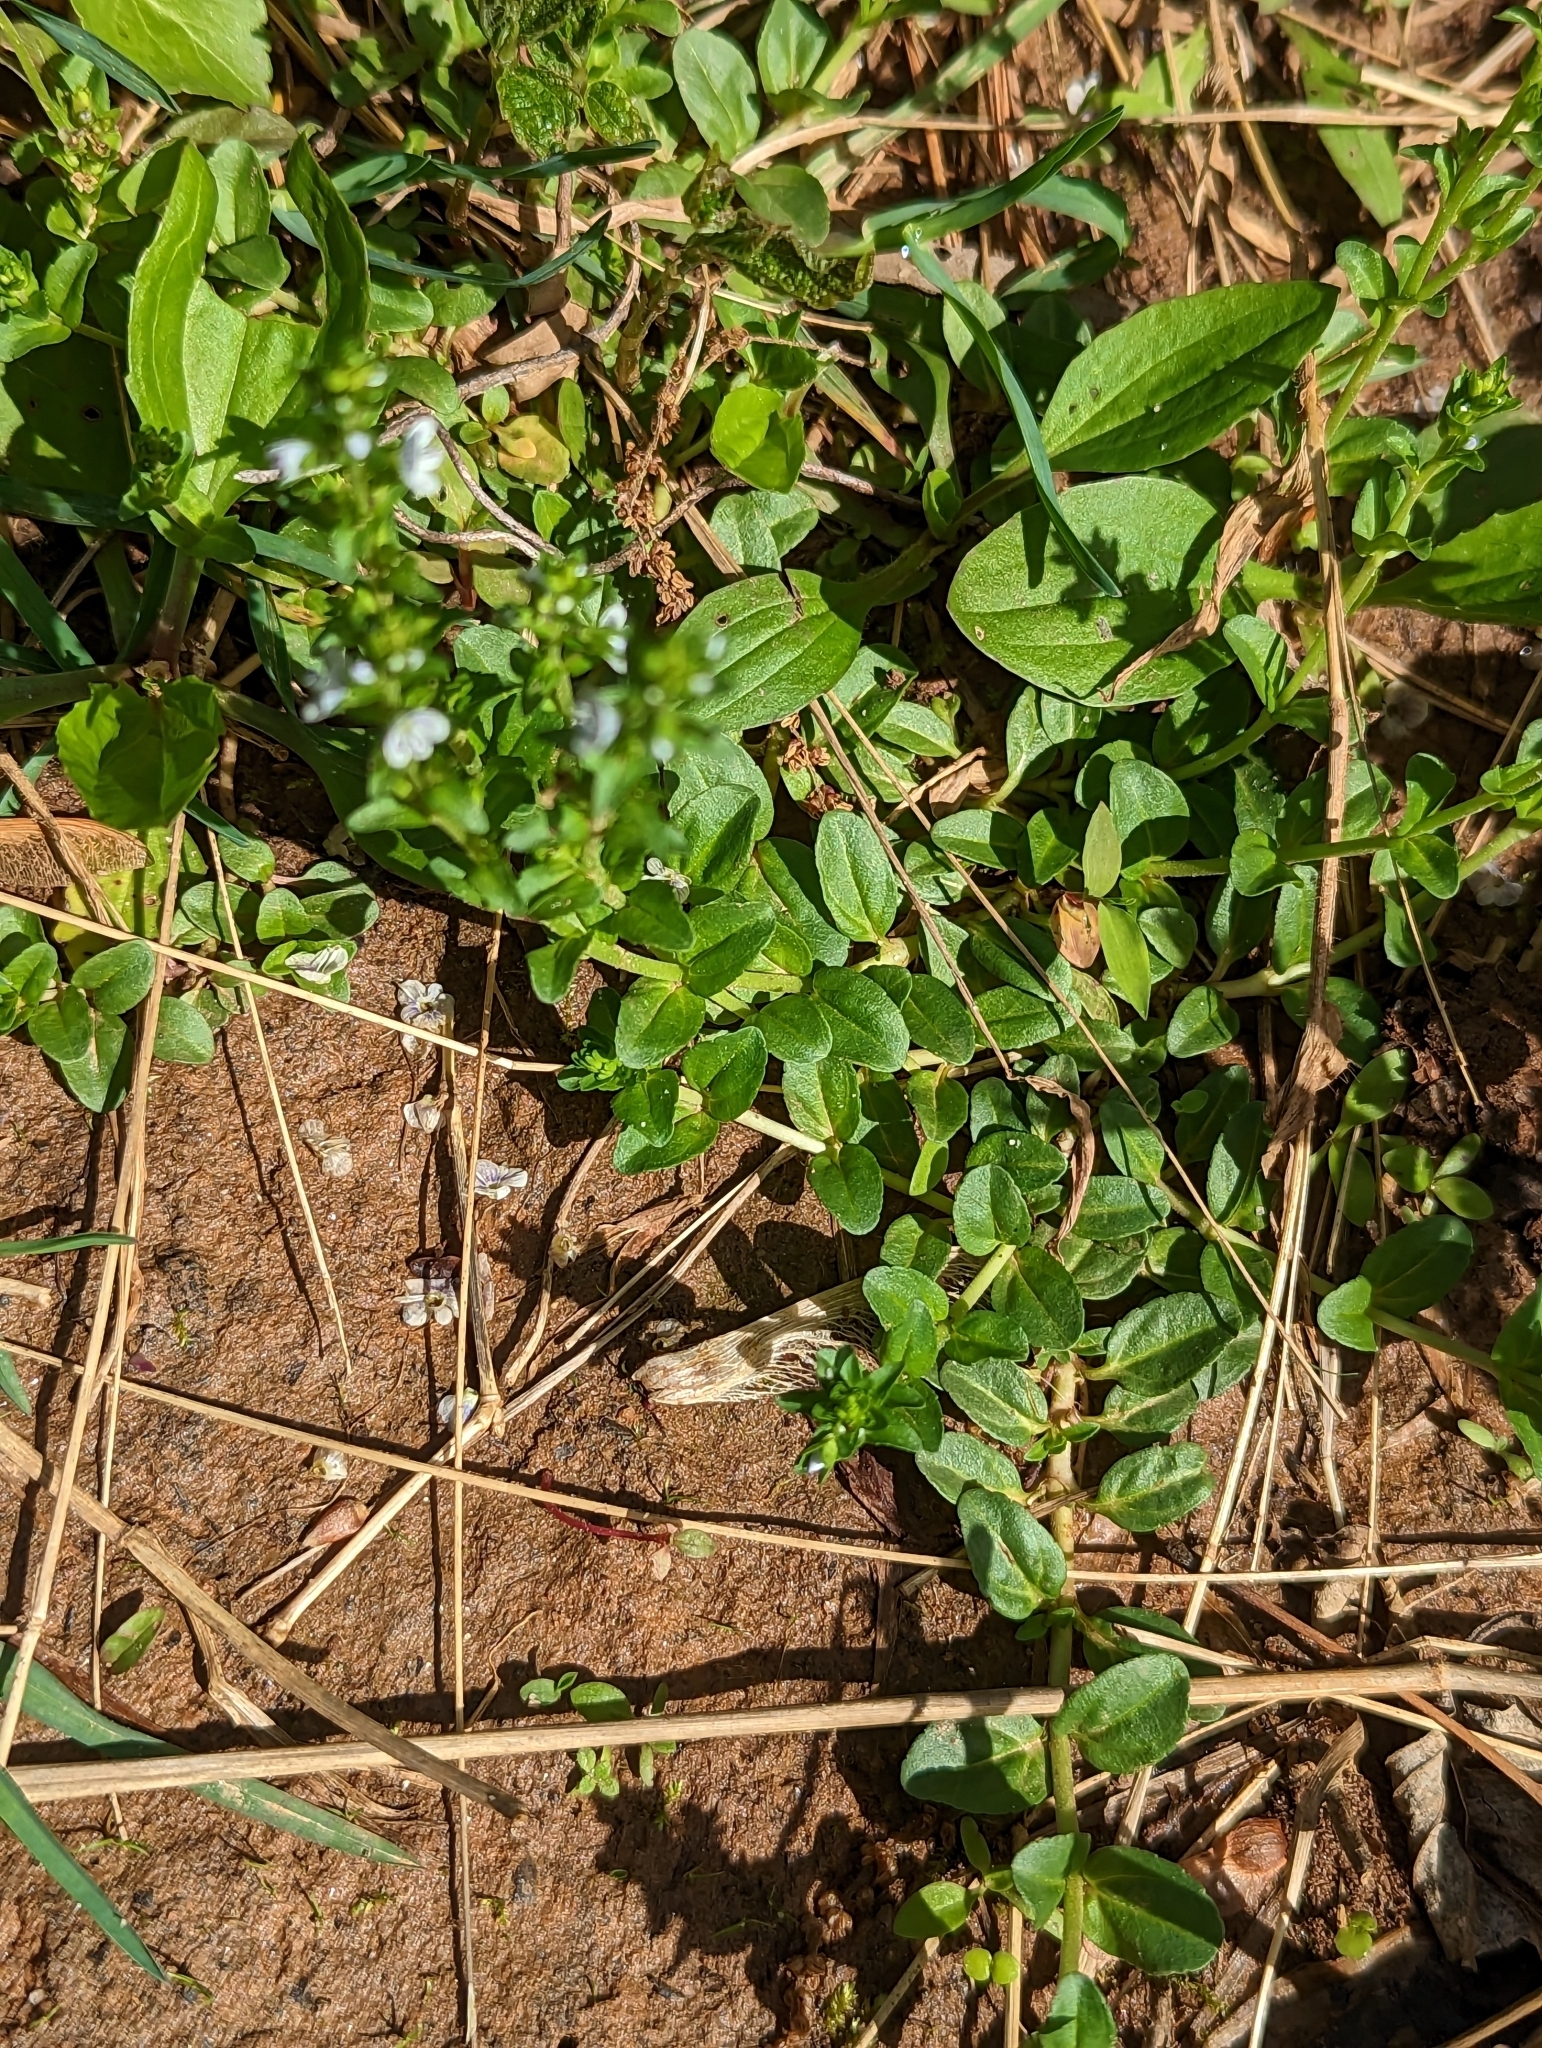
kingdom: Plantae
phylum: Tracheophyta
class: Magnoliopsida
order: Lamiales
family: Plantaginaceae
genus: Veronica
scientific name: Veronica serpyllifolia
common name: Thyme-leaved speedwell
